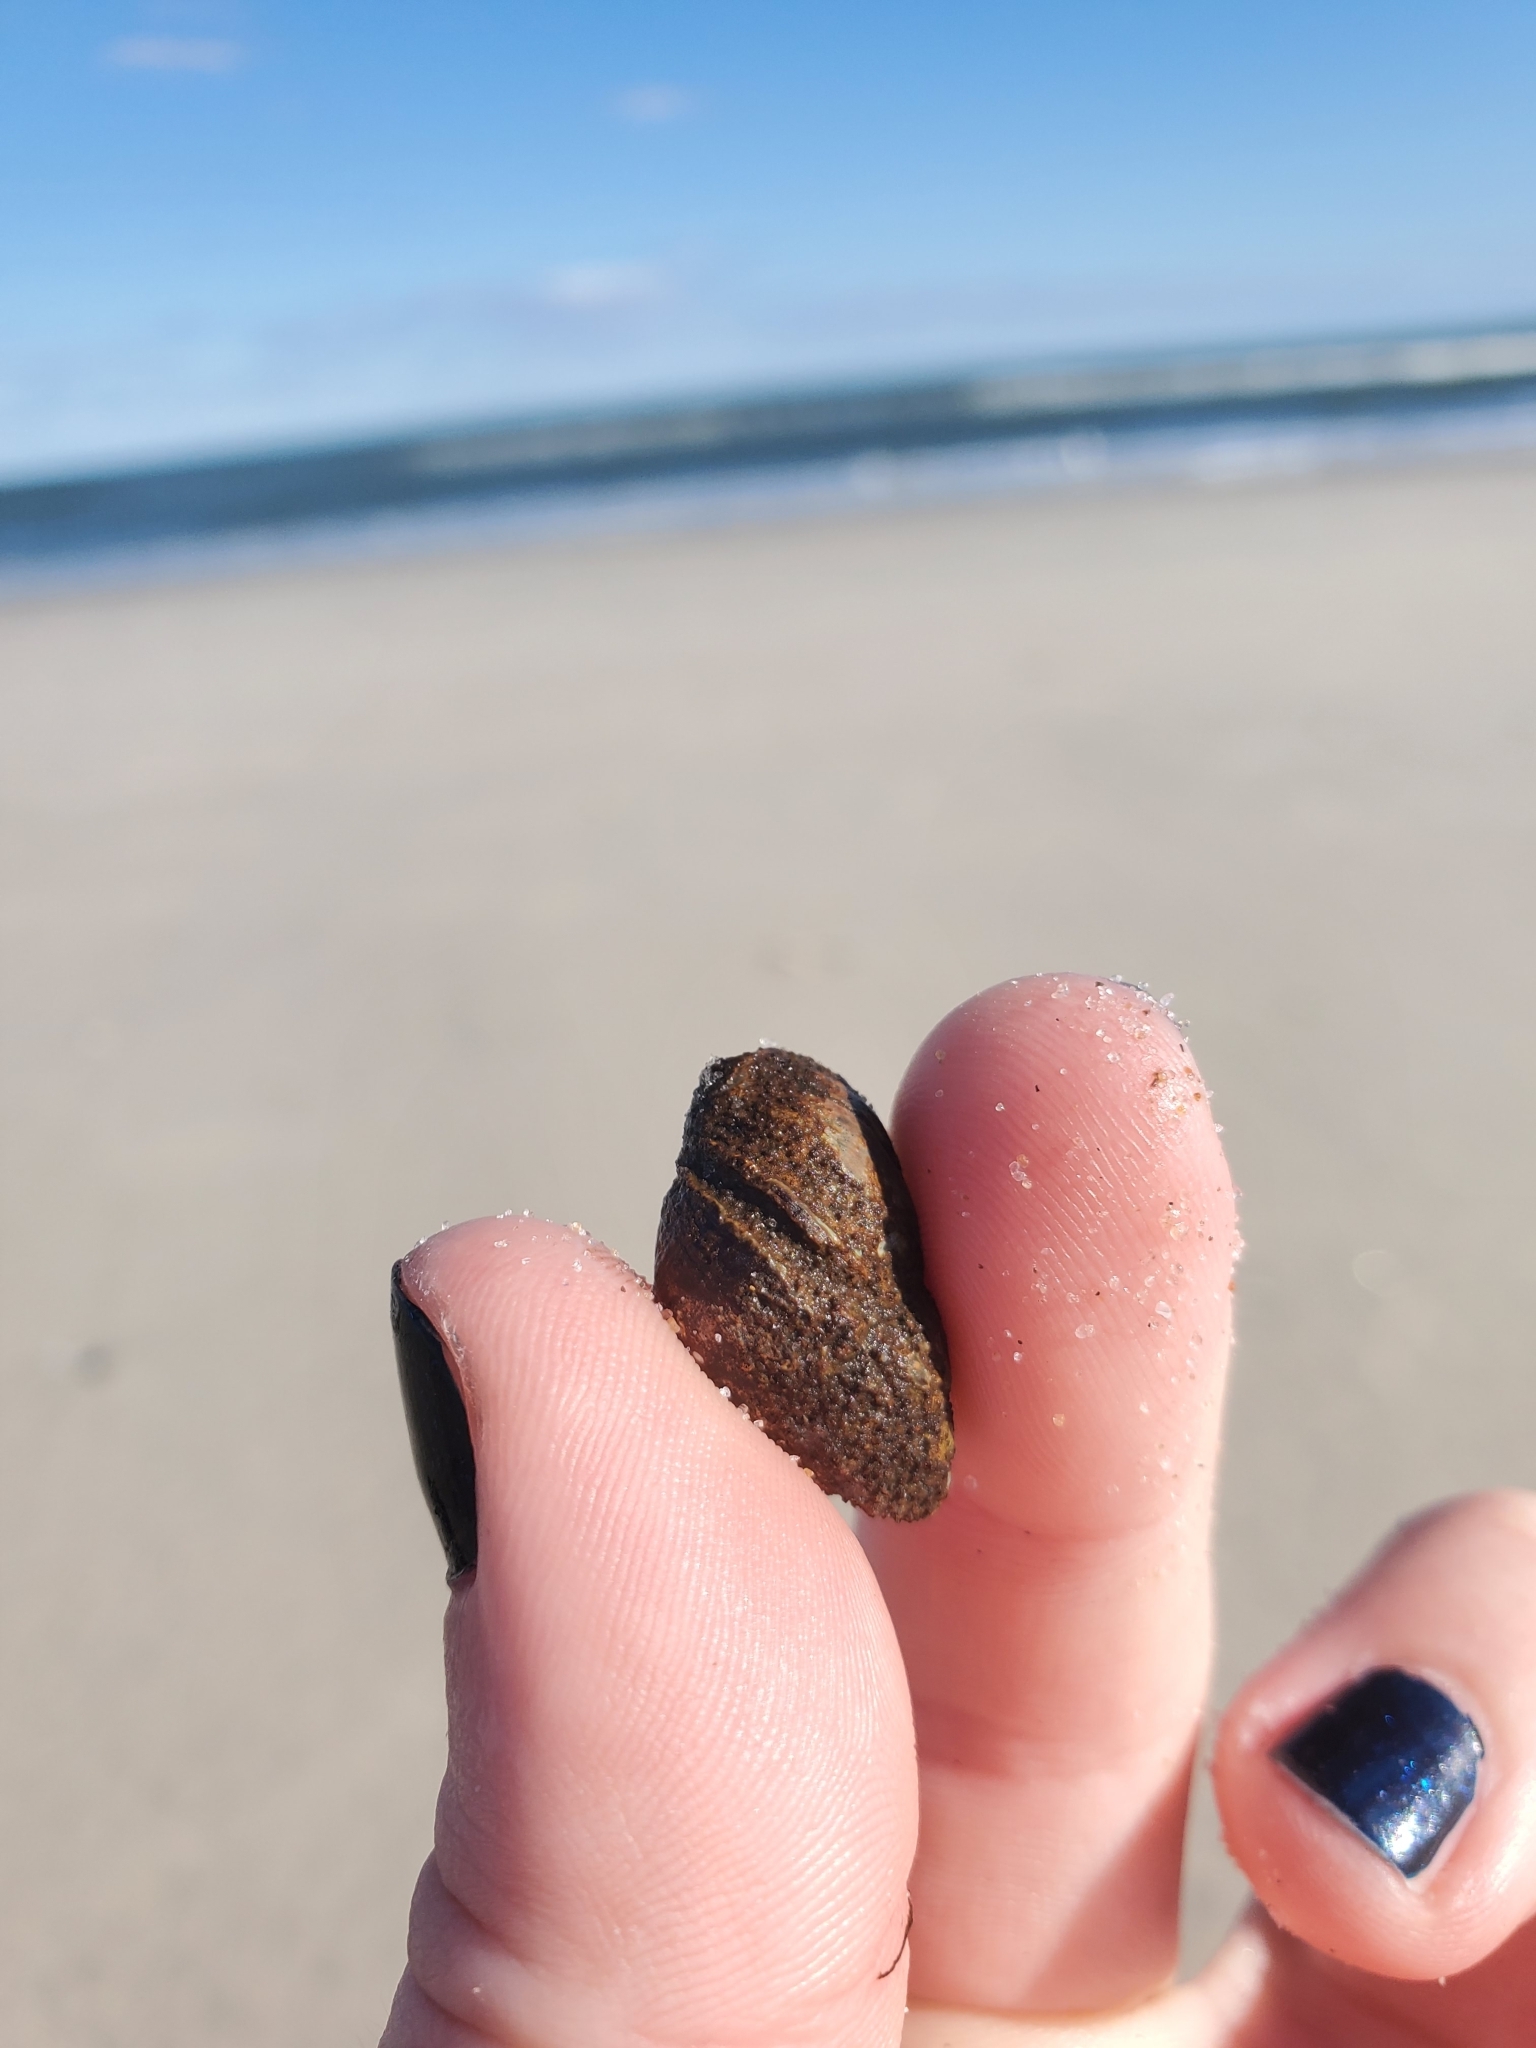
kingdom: Animalia
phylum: Arthropoda
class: Malacostraca
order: Decapoda
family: Paguridae
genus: Pagurus
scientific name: Pagurus longicarpus
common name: Long-armed hermit crab
